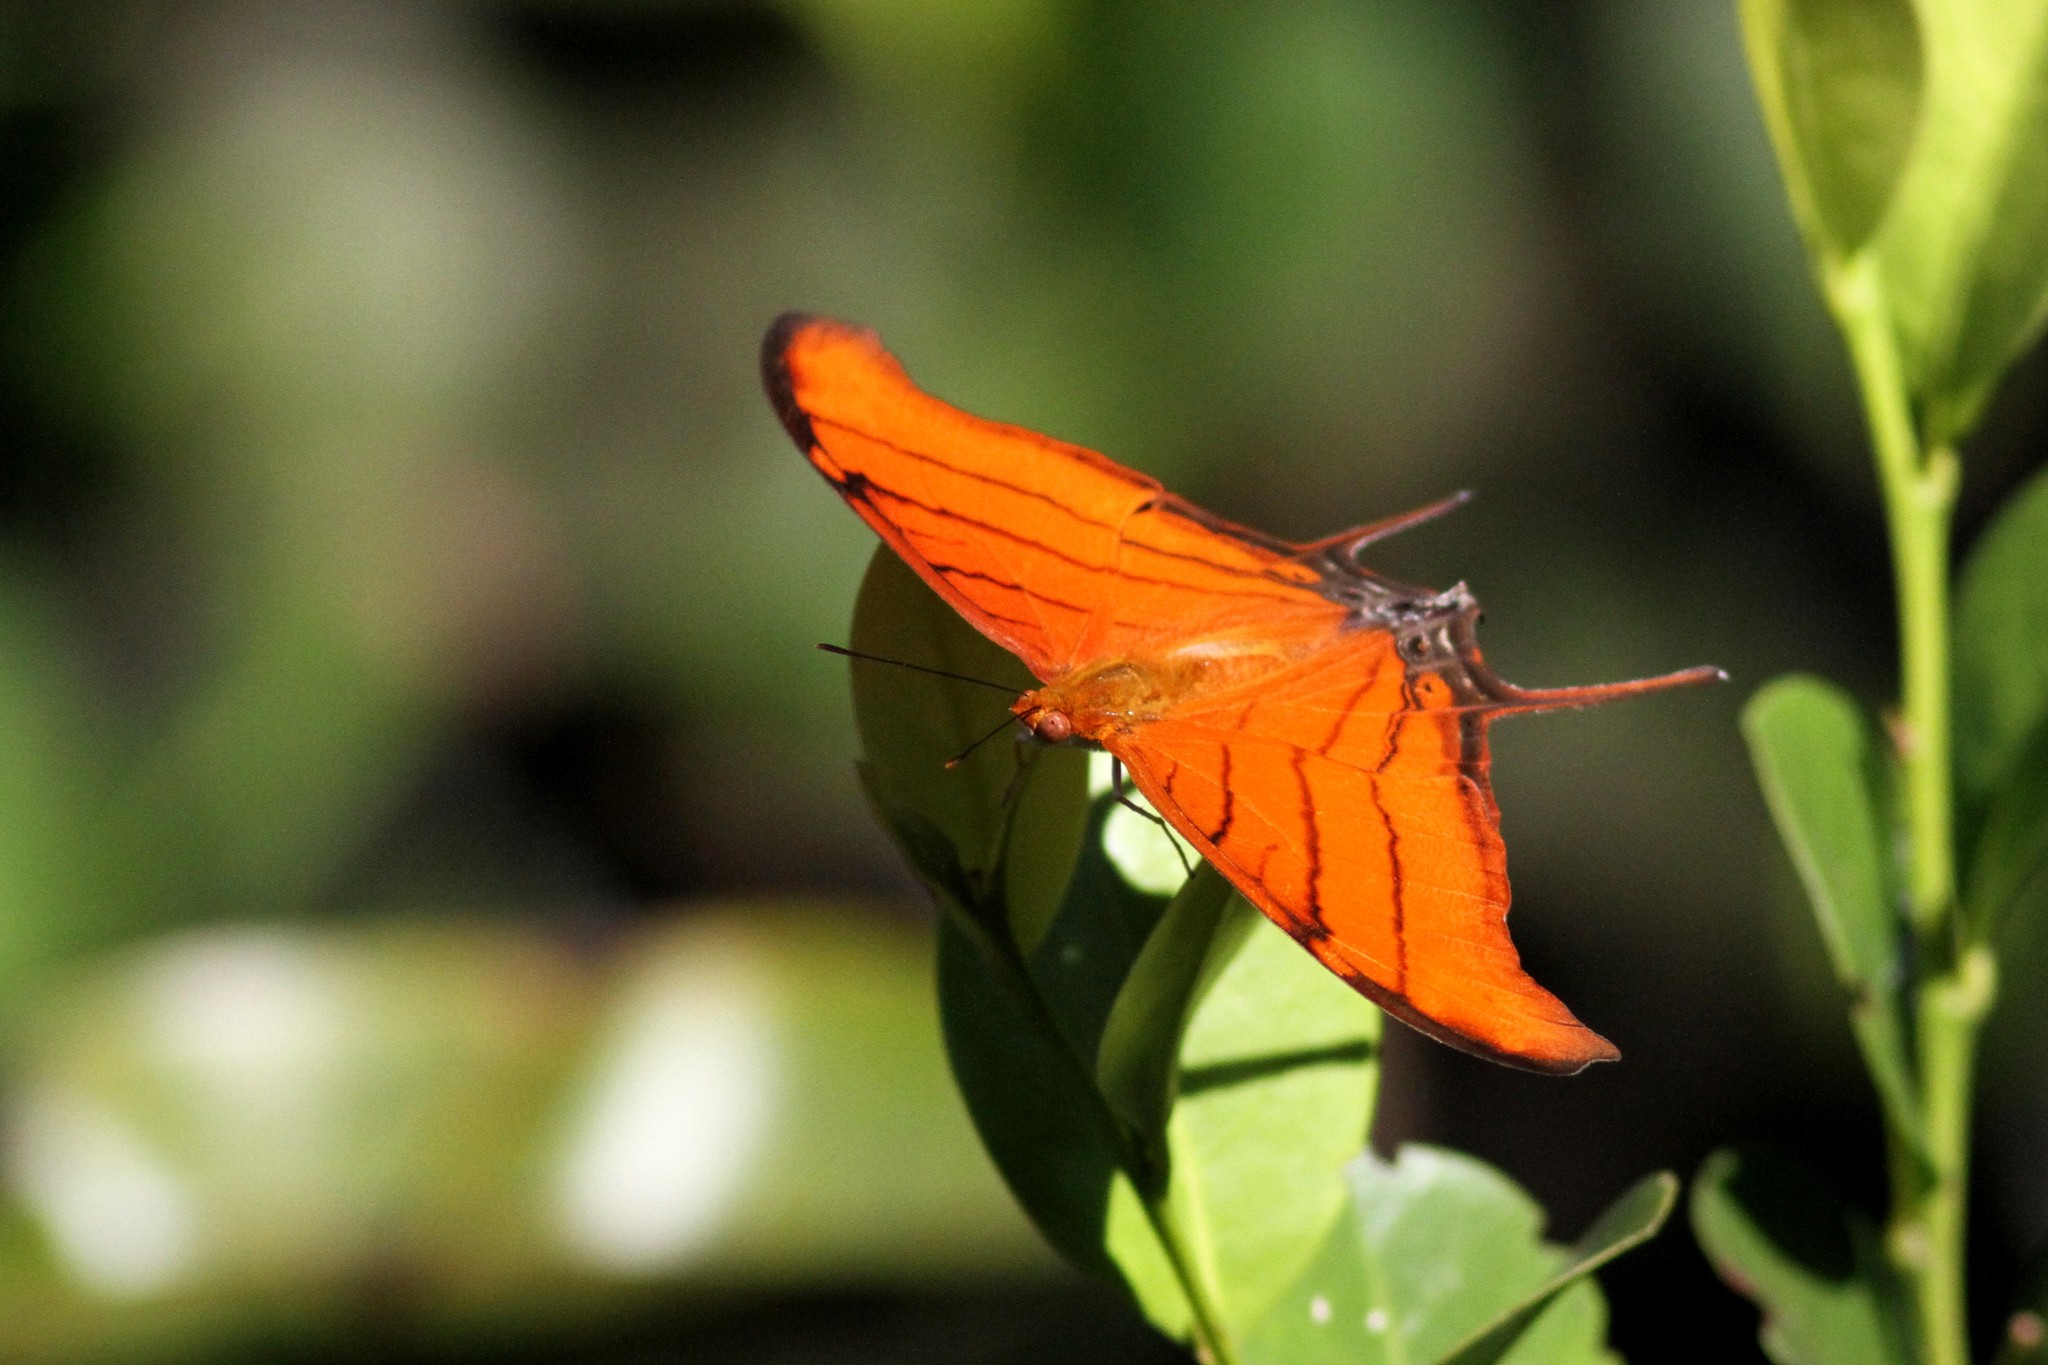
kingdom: Animalia
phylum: Arthropoda
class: Insecta
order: Lepidoptera
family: Nymphalidae
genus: Marpesia
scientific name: Marpesia petreus
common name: Red dagger wing
